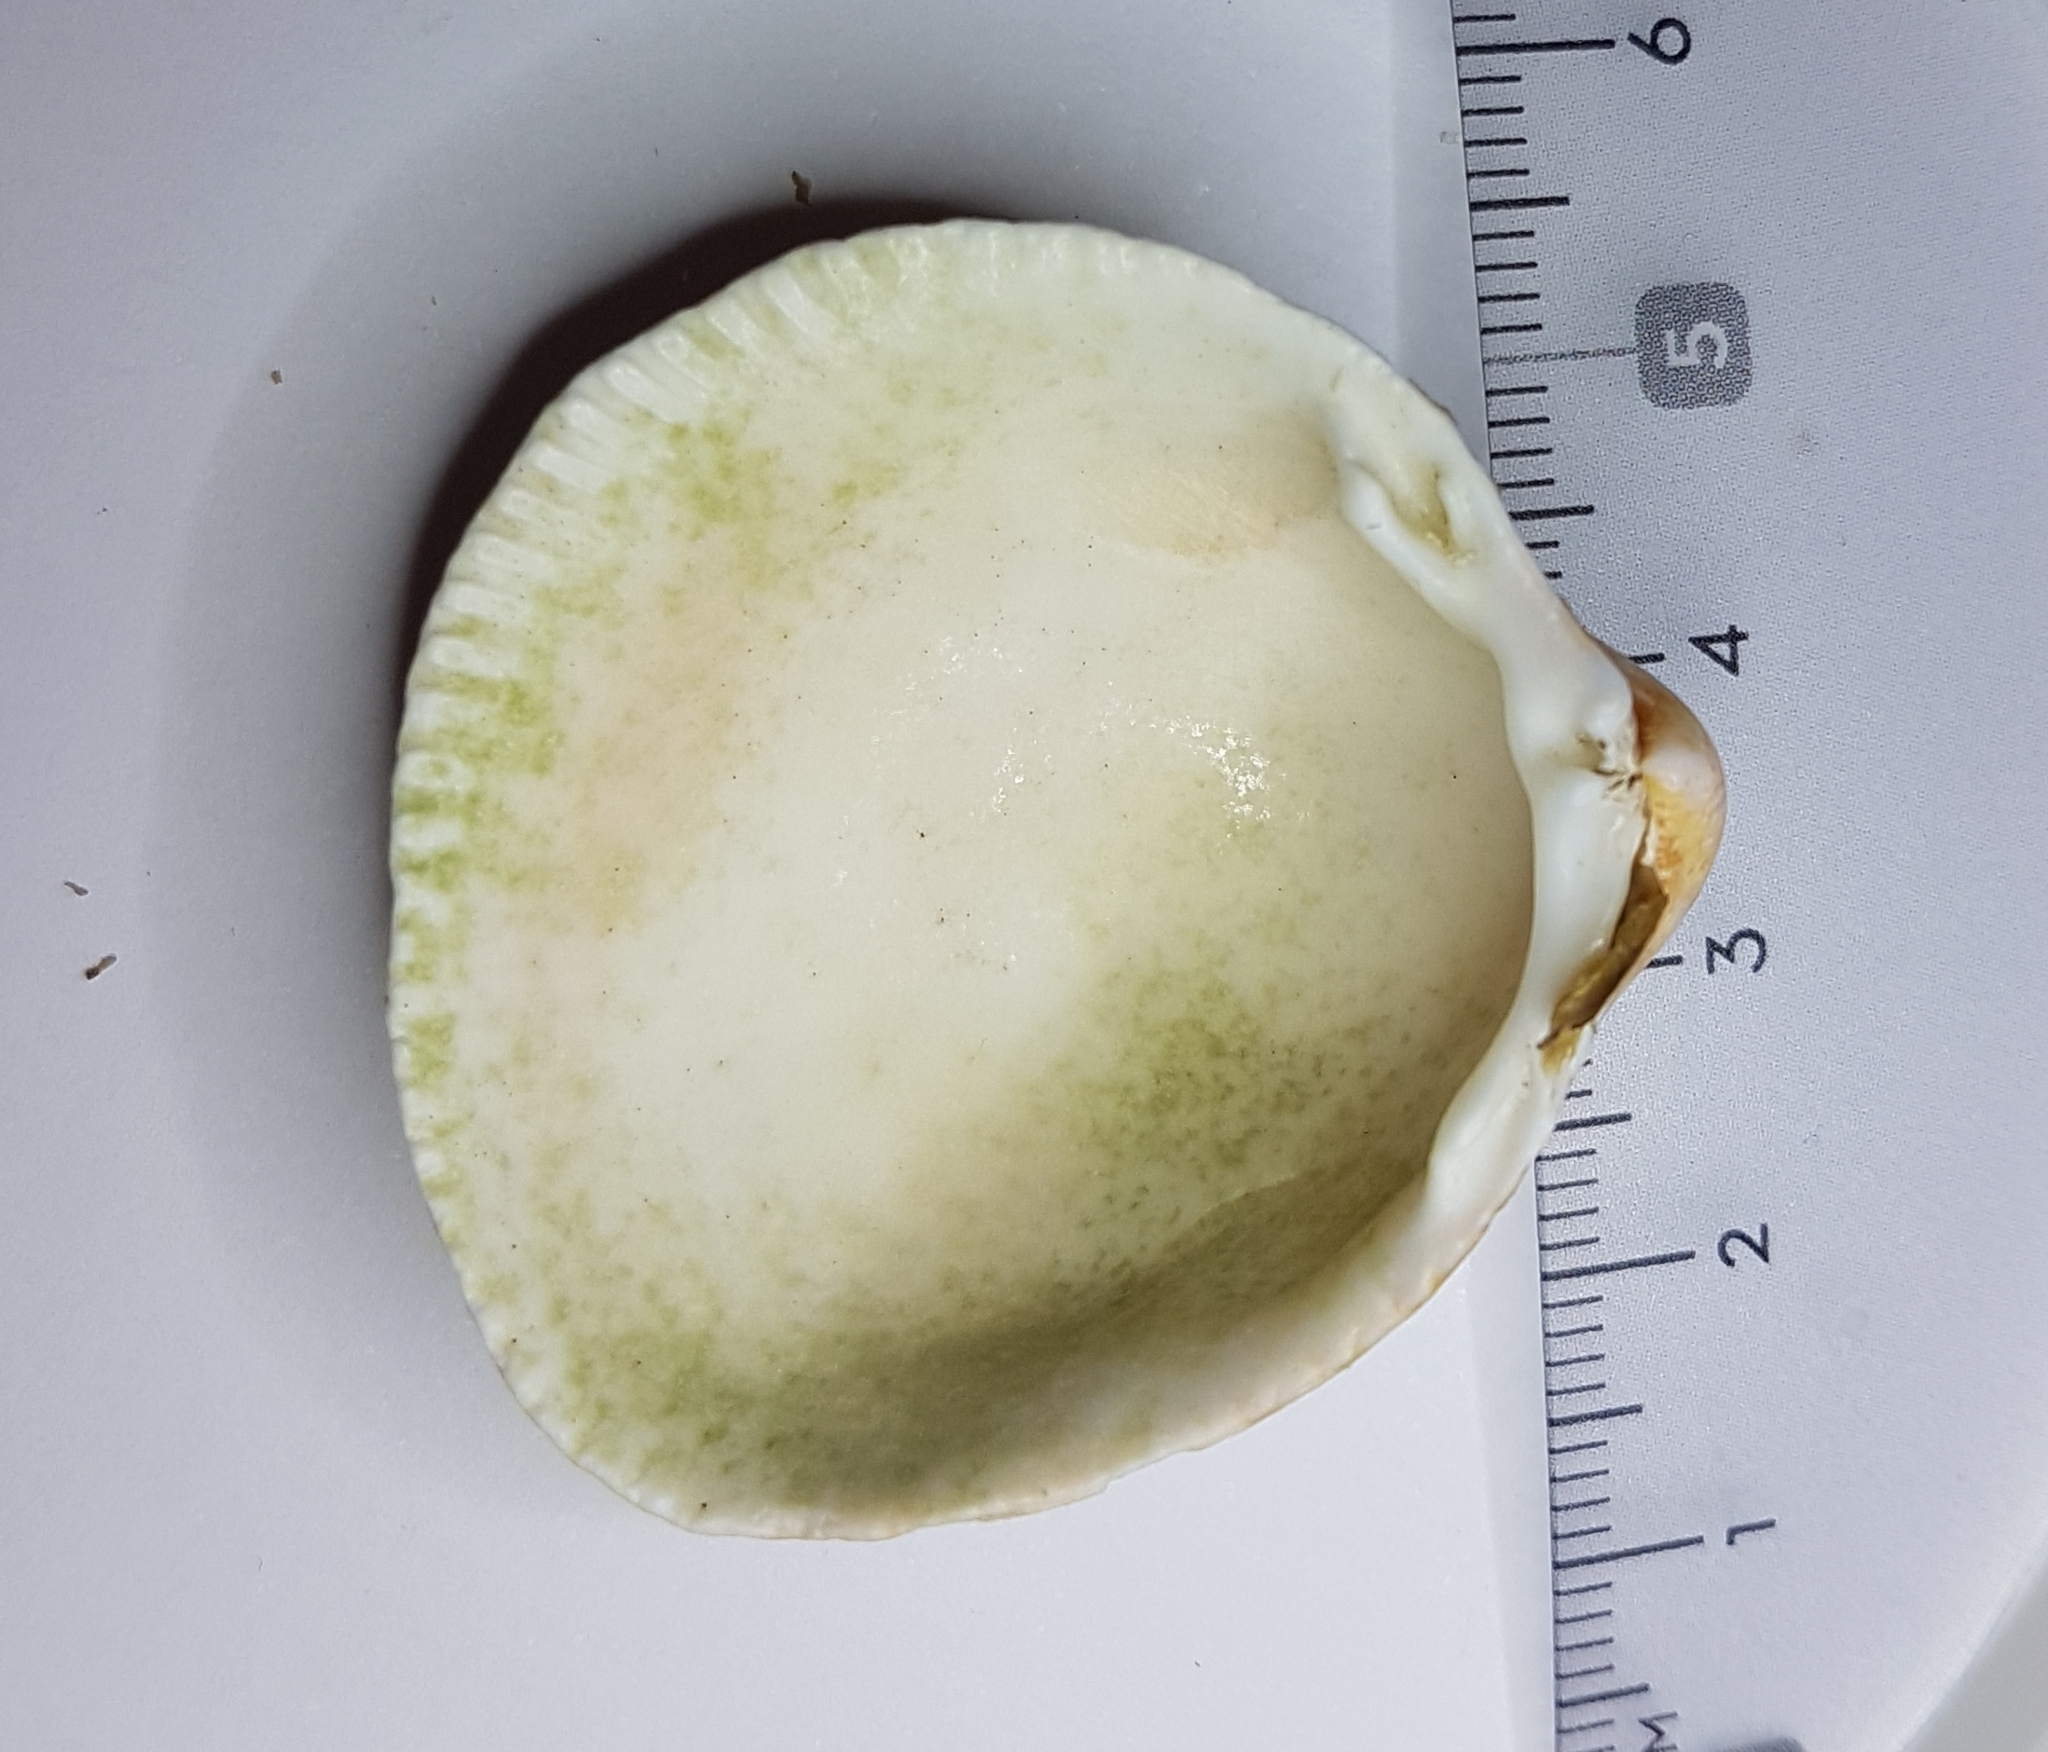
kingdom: Animalia
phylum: Mollusca
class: Bivalvia
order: Cardiida
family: Cardiidae
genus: Laevicardium
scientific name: Laevicardium crassum
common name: Norway cockle
